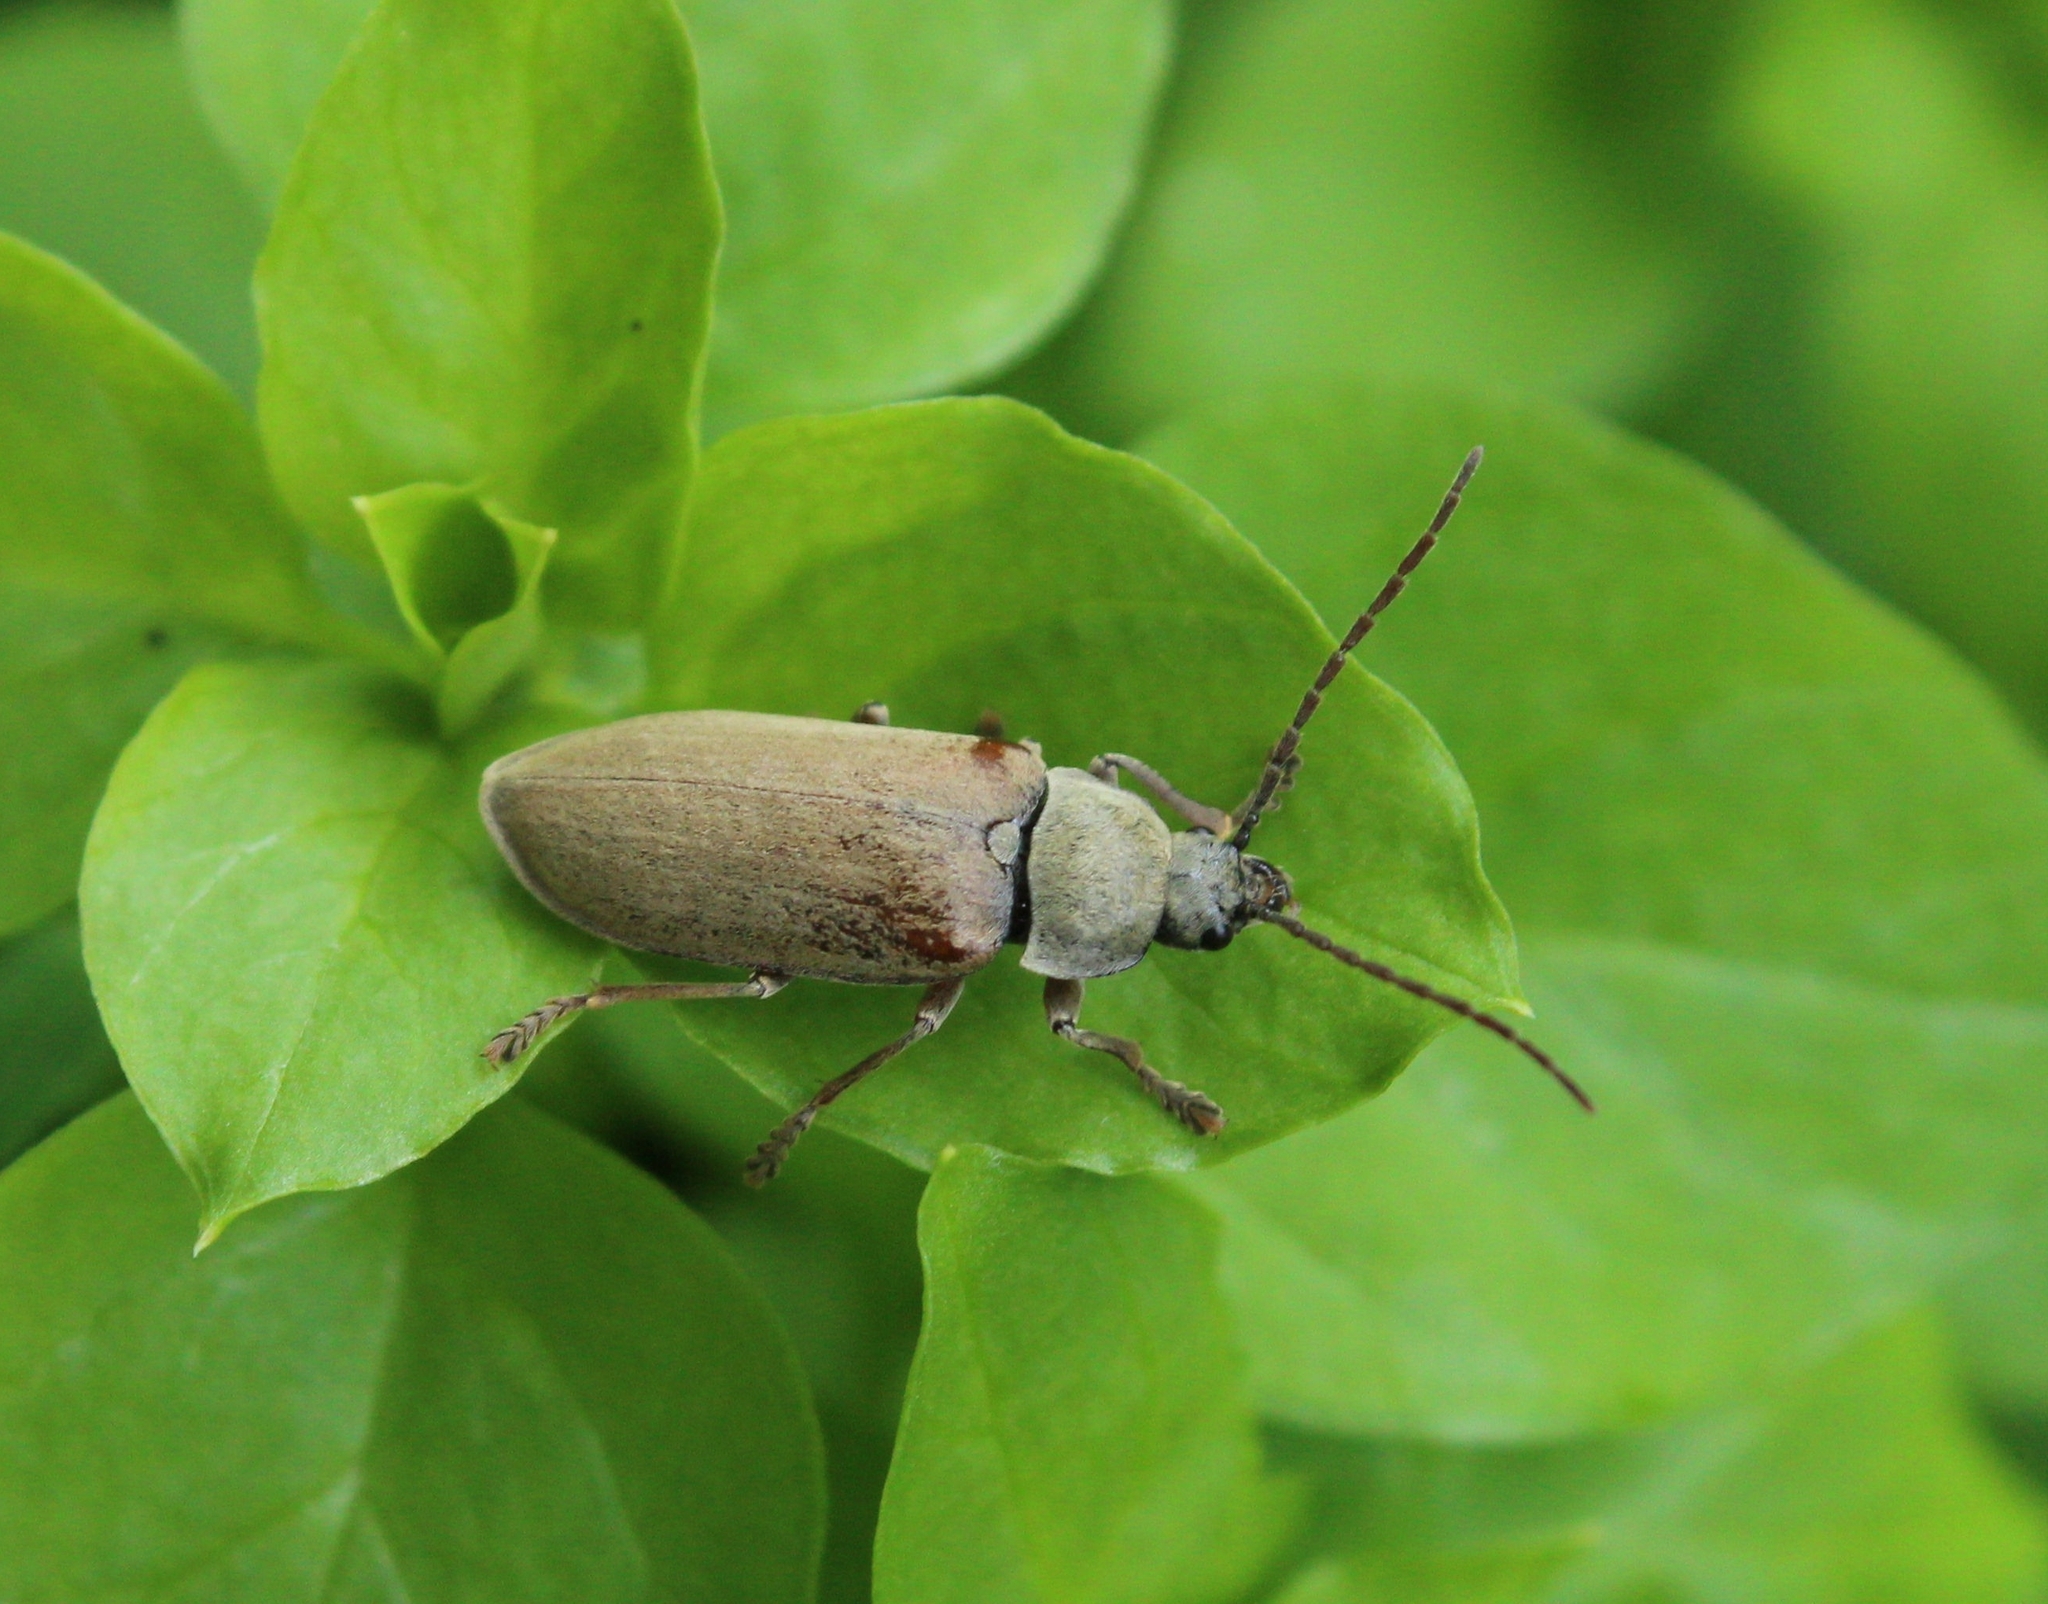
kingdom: Animalia
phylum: Arthropoda
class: Insecta
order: Coleoptera
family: Dascillidae
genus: Dascillus
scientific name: Dascillus cervinus
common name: Orchid beetle
